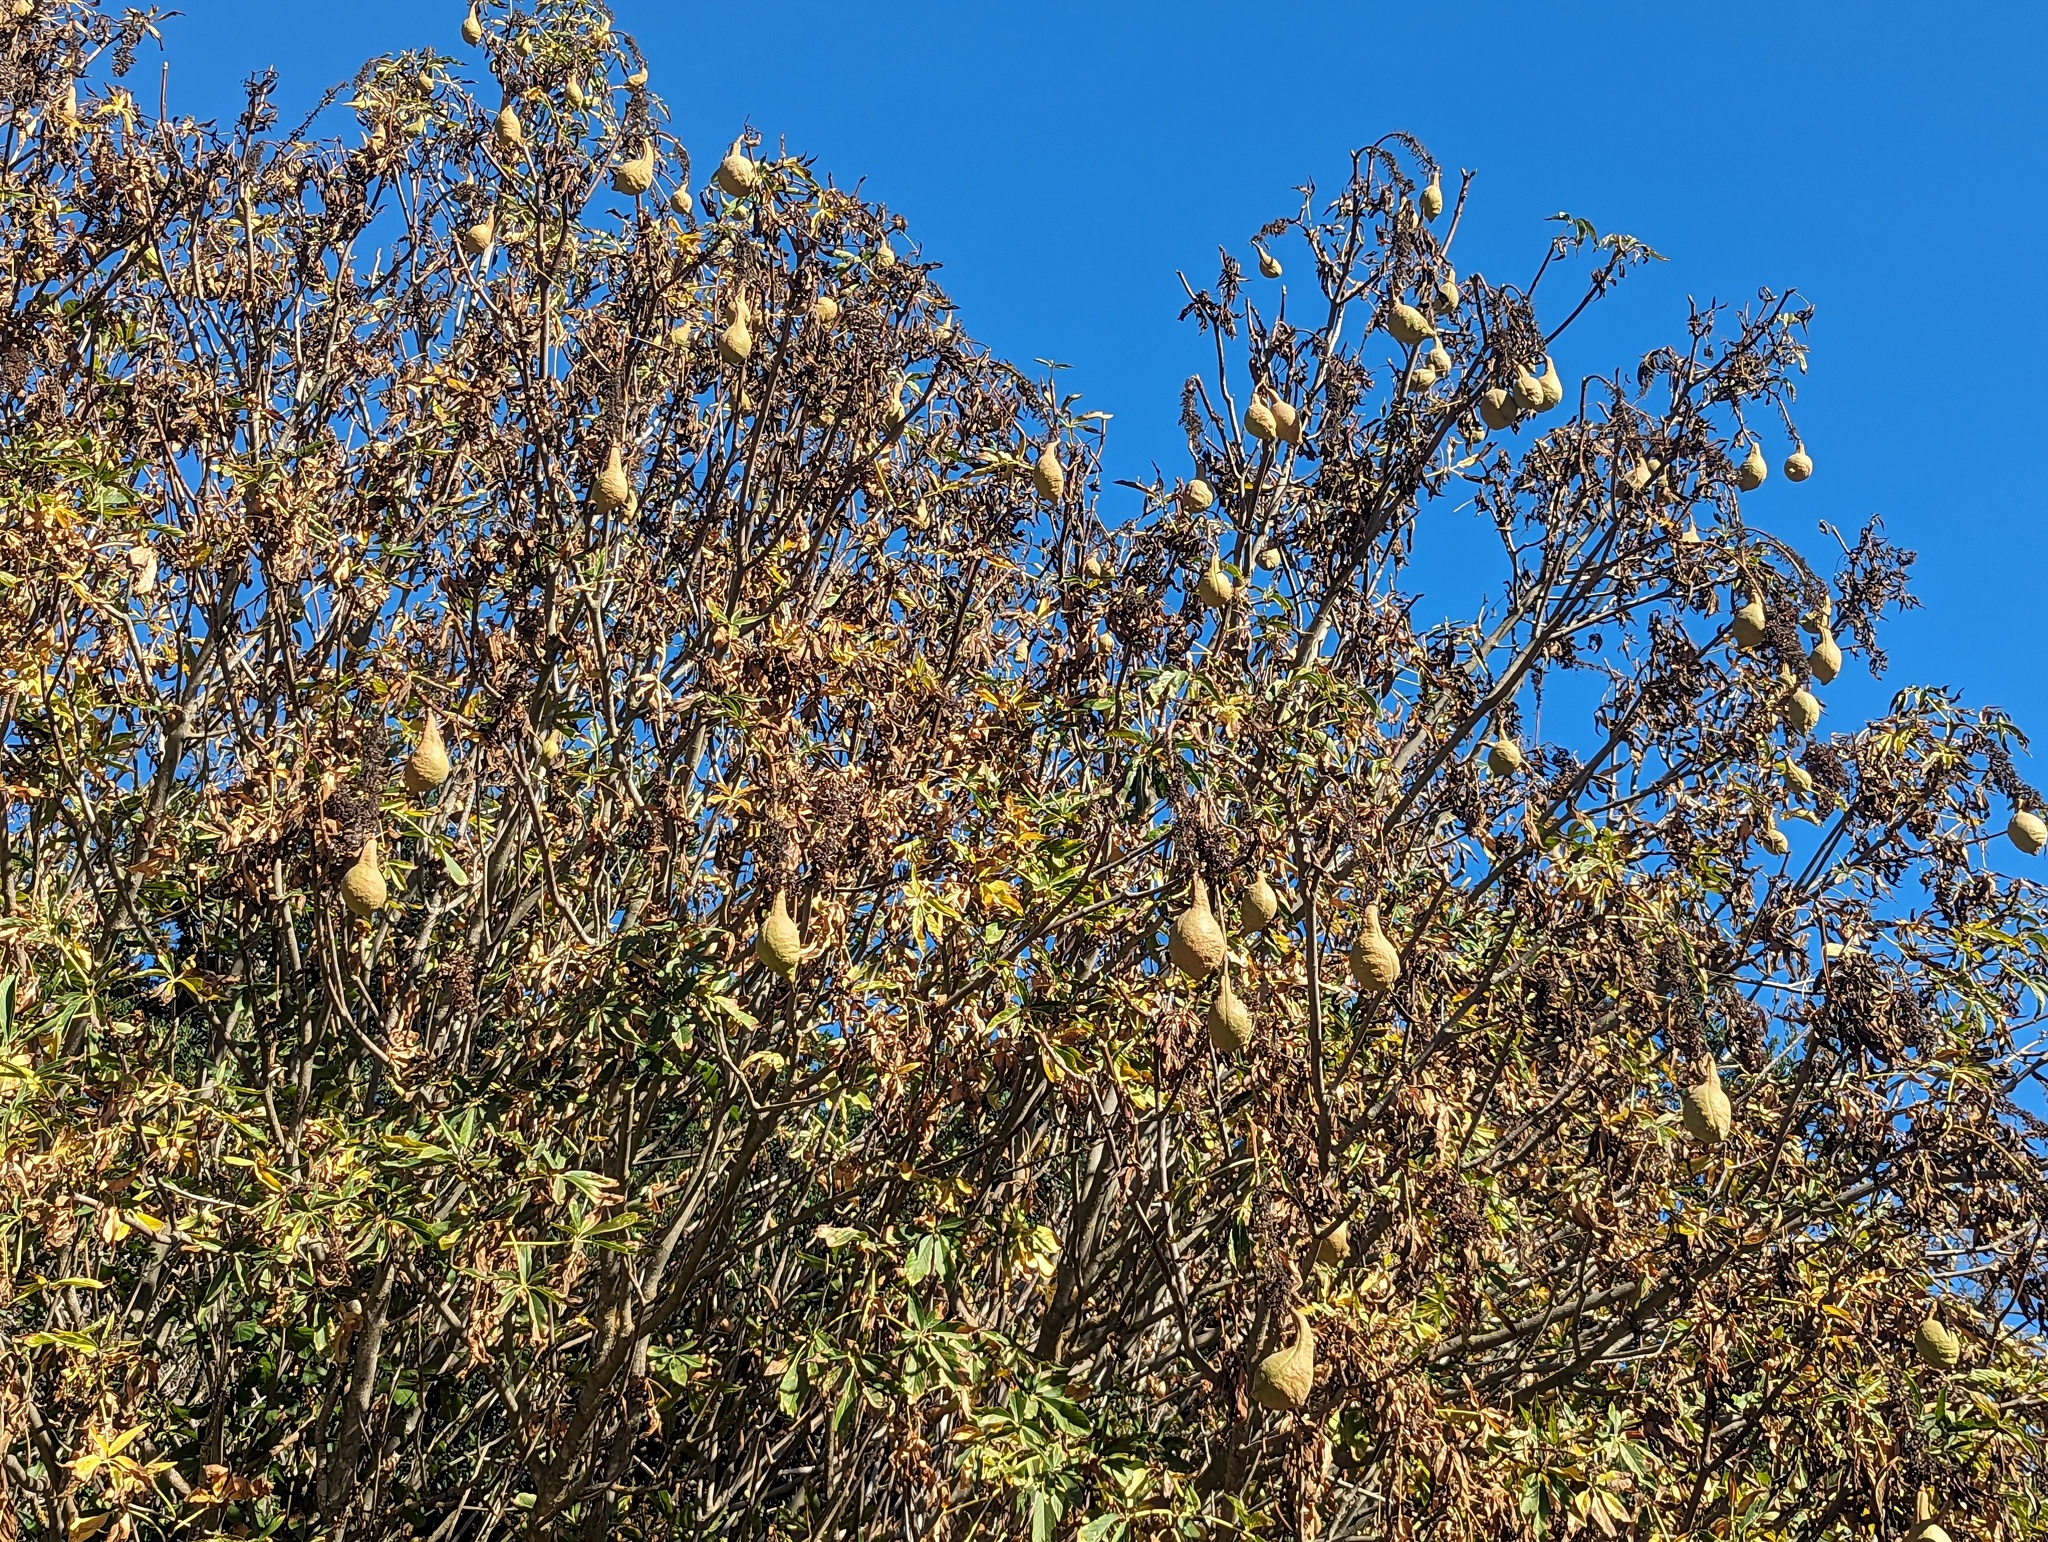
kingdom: Plantae
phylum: Tracheophyta
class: Magnoliopsida
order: Sapindales
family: Sapindaceae
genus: Aesculus
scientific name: Aesculus californica
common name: California buckeye
